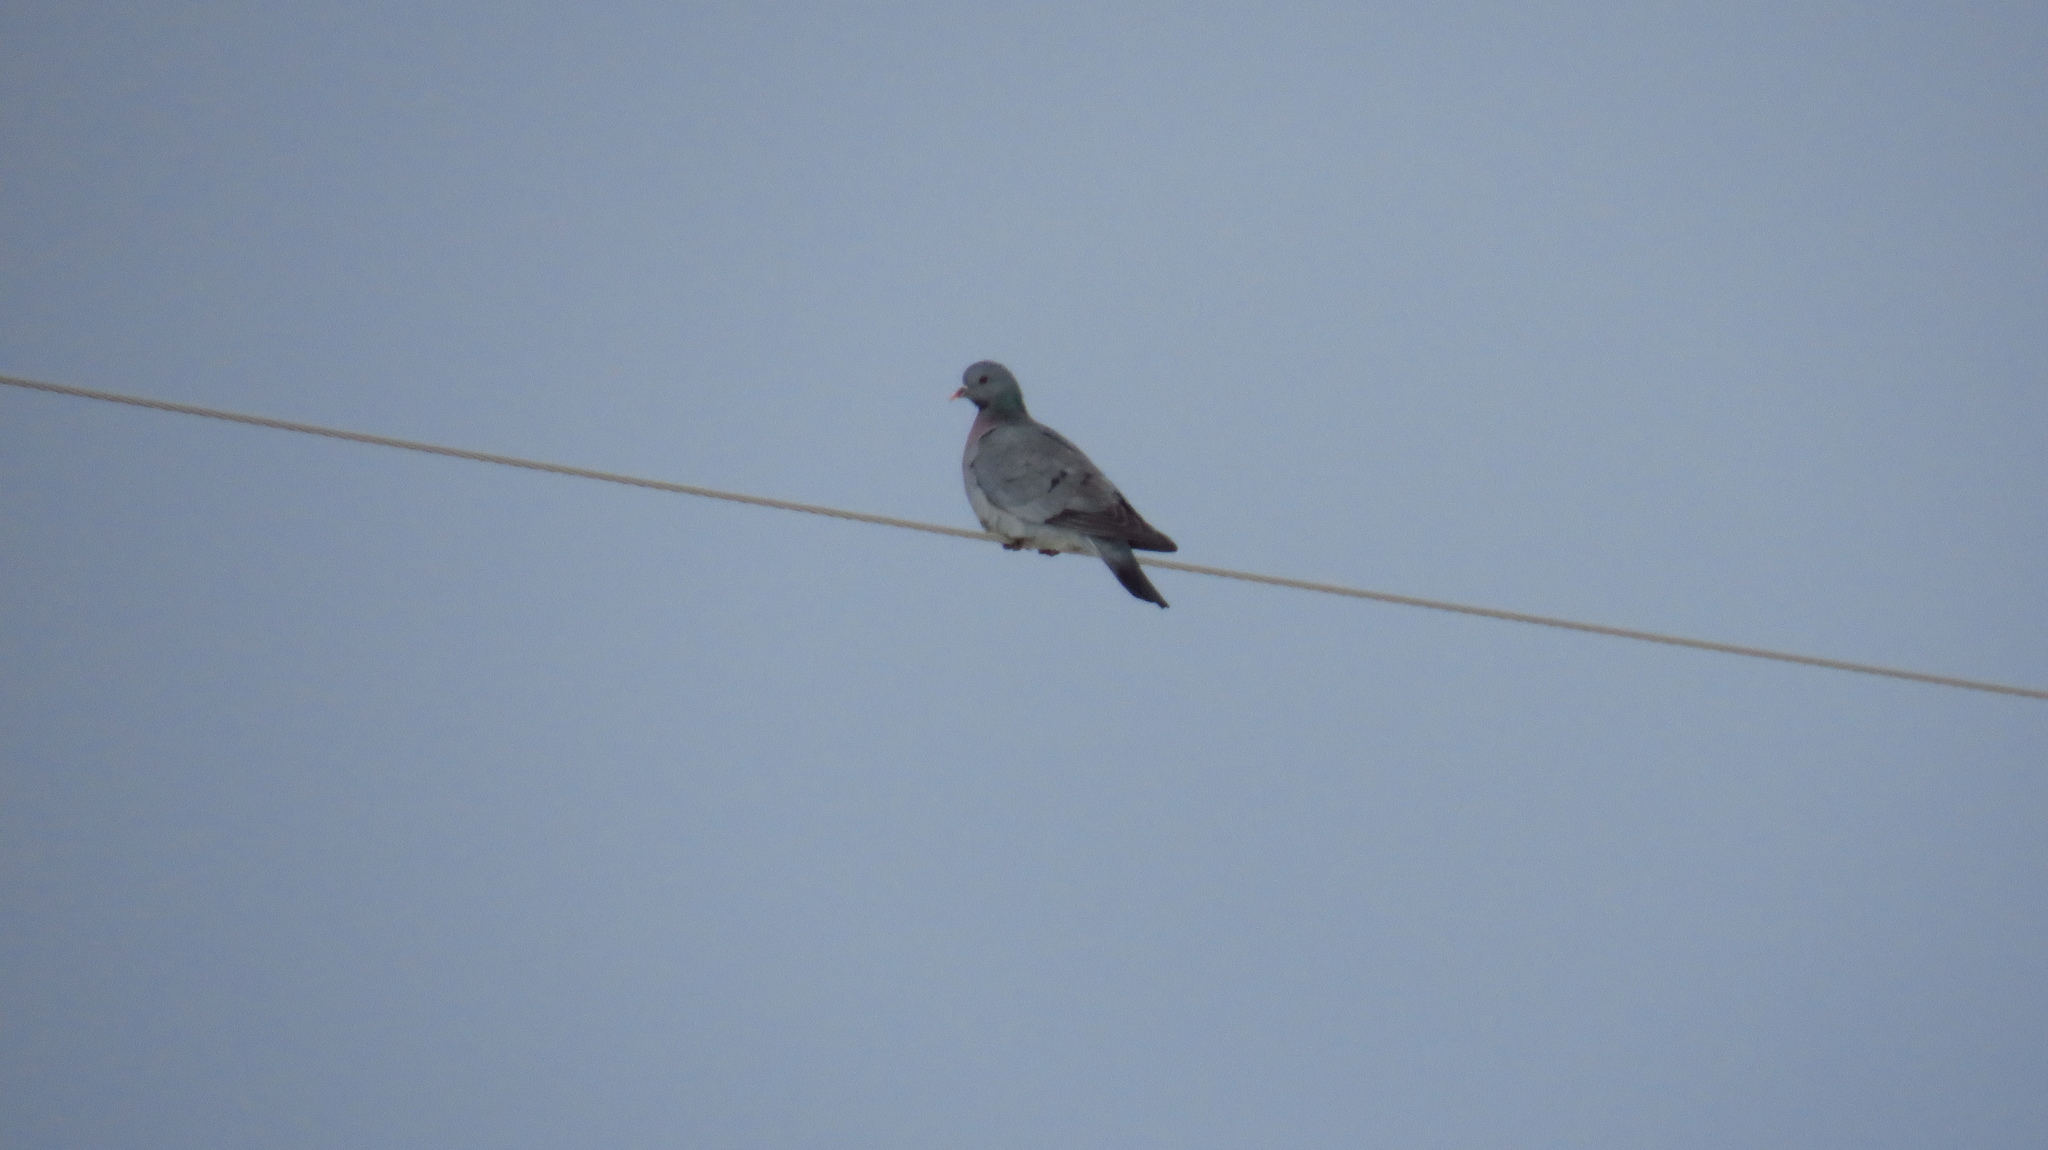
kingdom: Animalia
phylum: Chordata
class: Aves
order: Columbiformes
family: Columbidae
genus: Columba
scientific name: Columba oenas
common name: Stock dove
